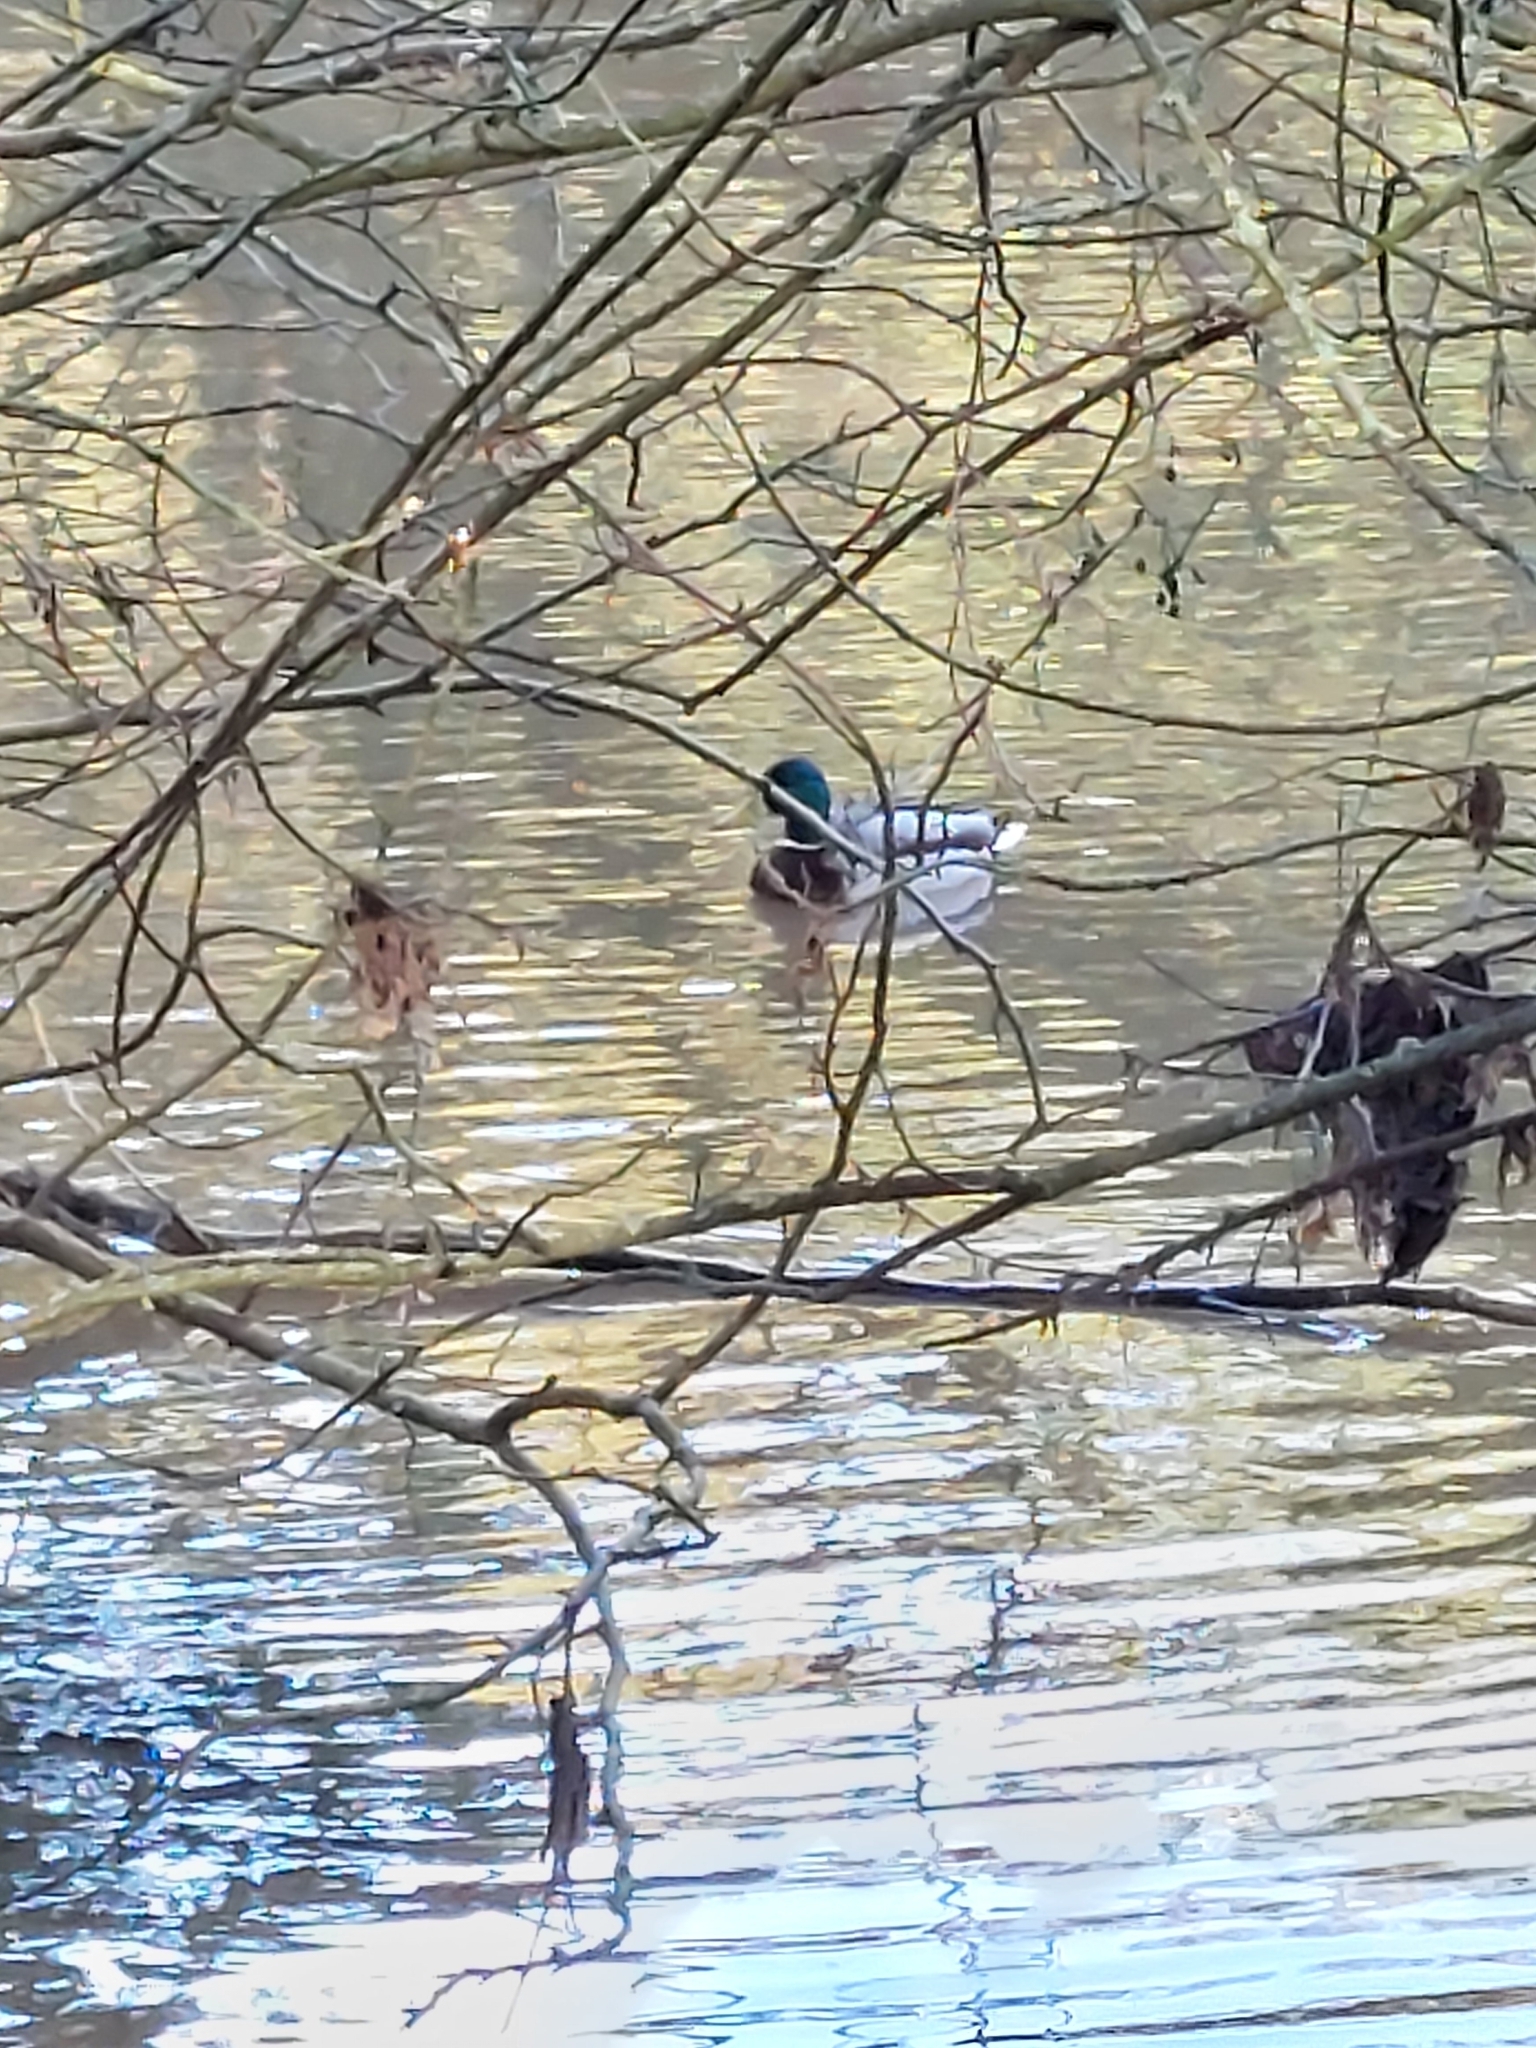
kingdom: Animalia
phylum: Chordata
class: Aves
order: Anseriformes
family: Anatidae
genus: Anas
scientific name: Anas platyrhynchos
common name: Mallard
